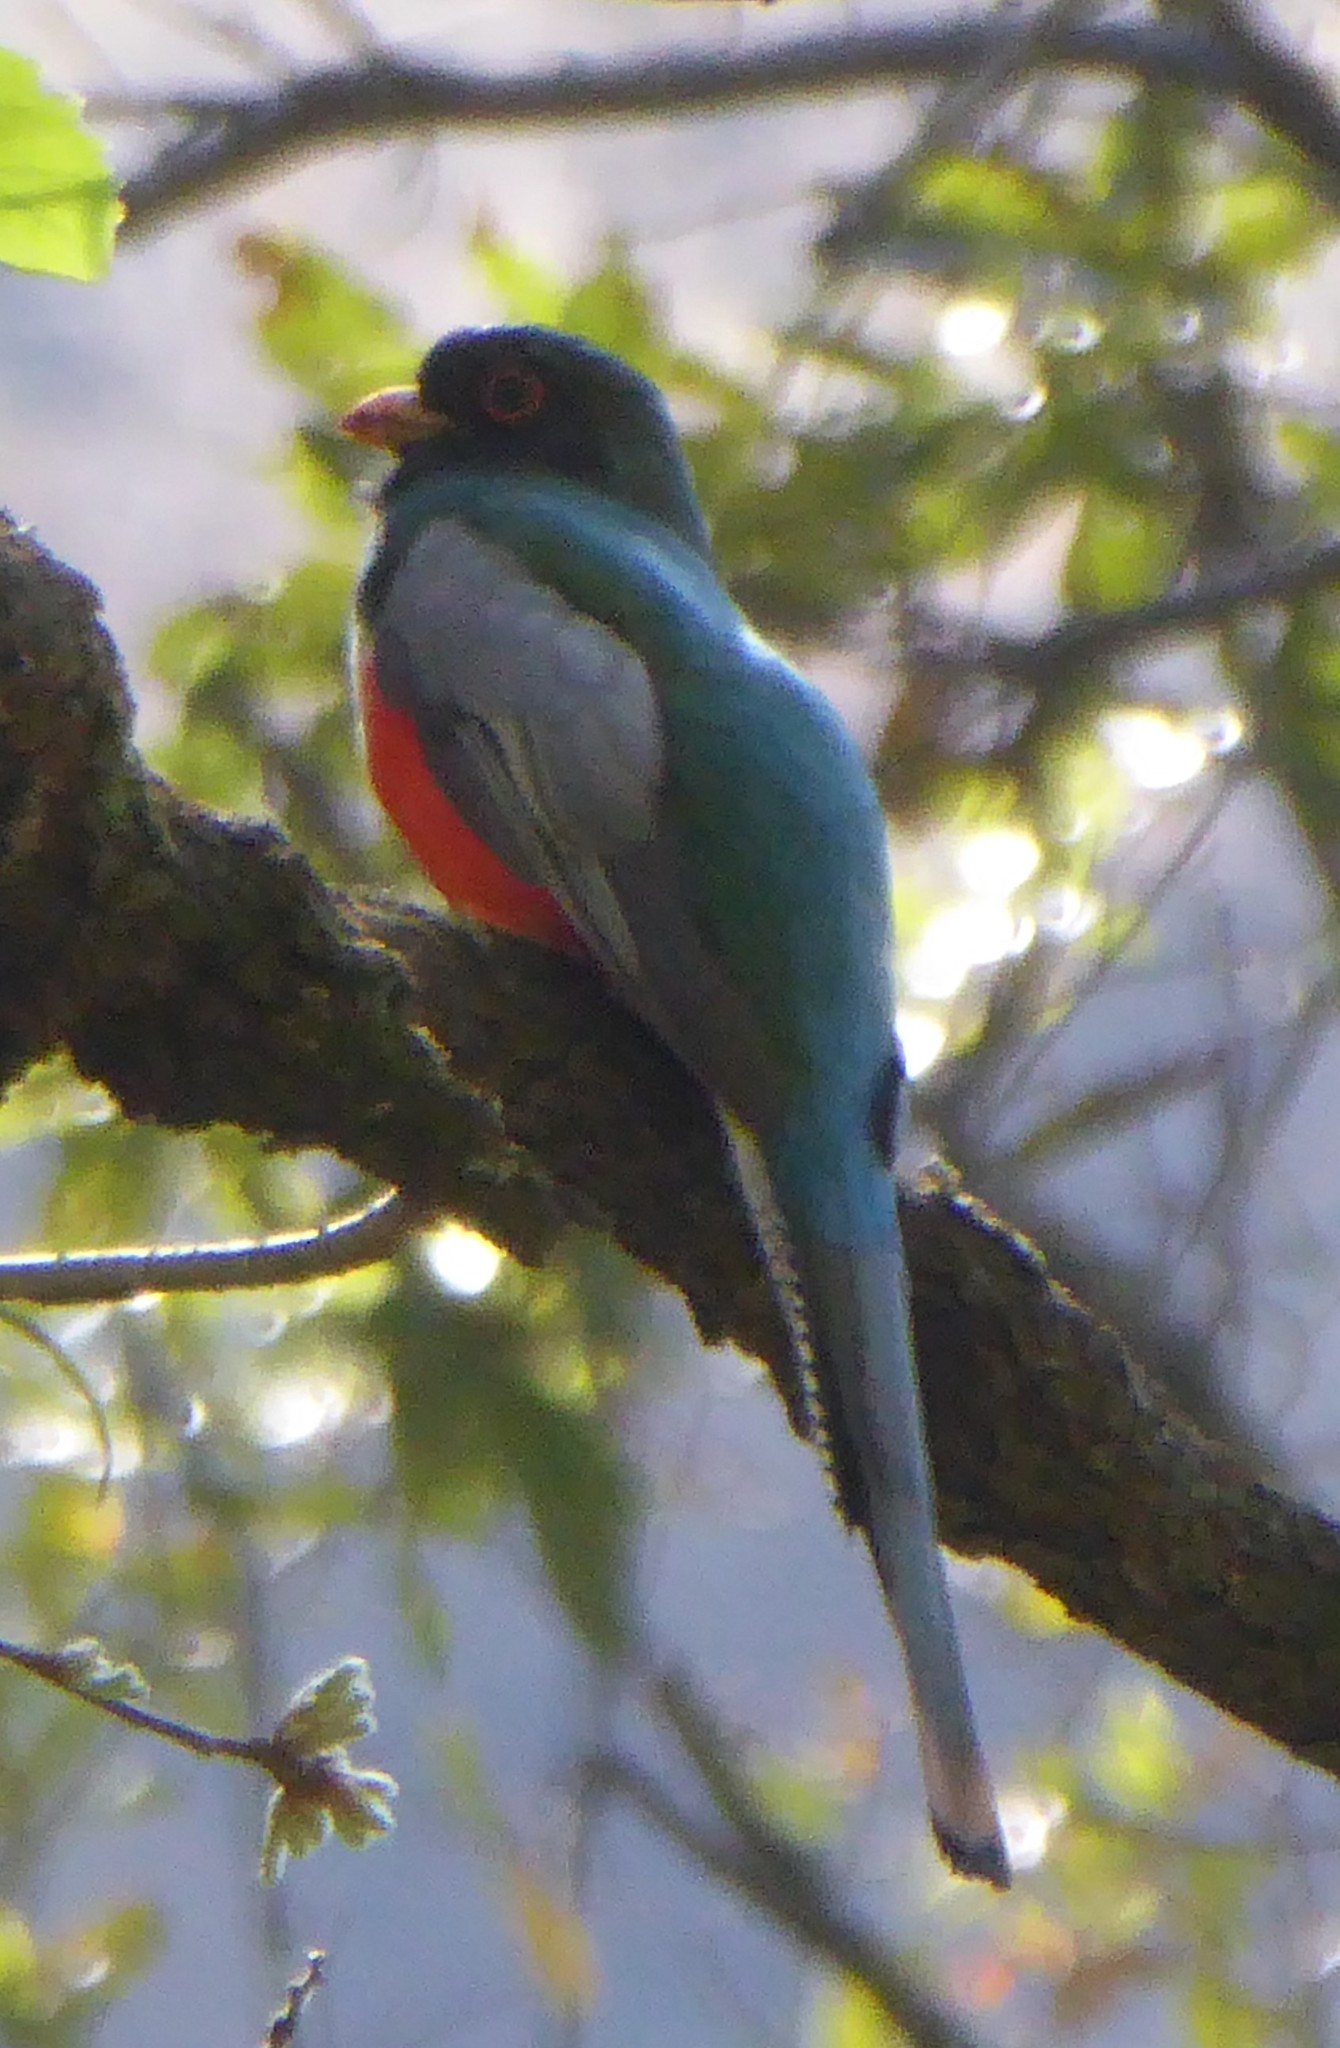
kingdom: Animalia
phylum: Chordata
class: Aves
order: Trogoniformes
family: Trogonidae
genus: Trogon
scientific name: Trogon elegans
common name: Elegant trogon
